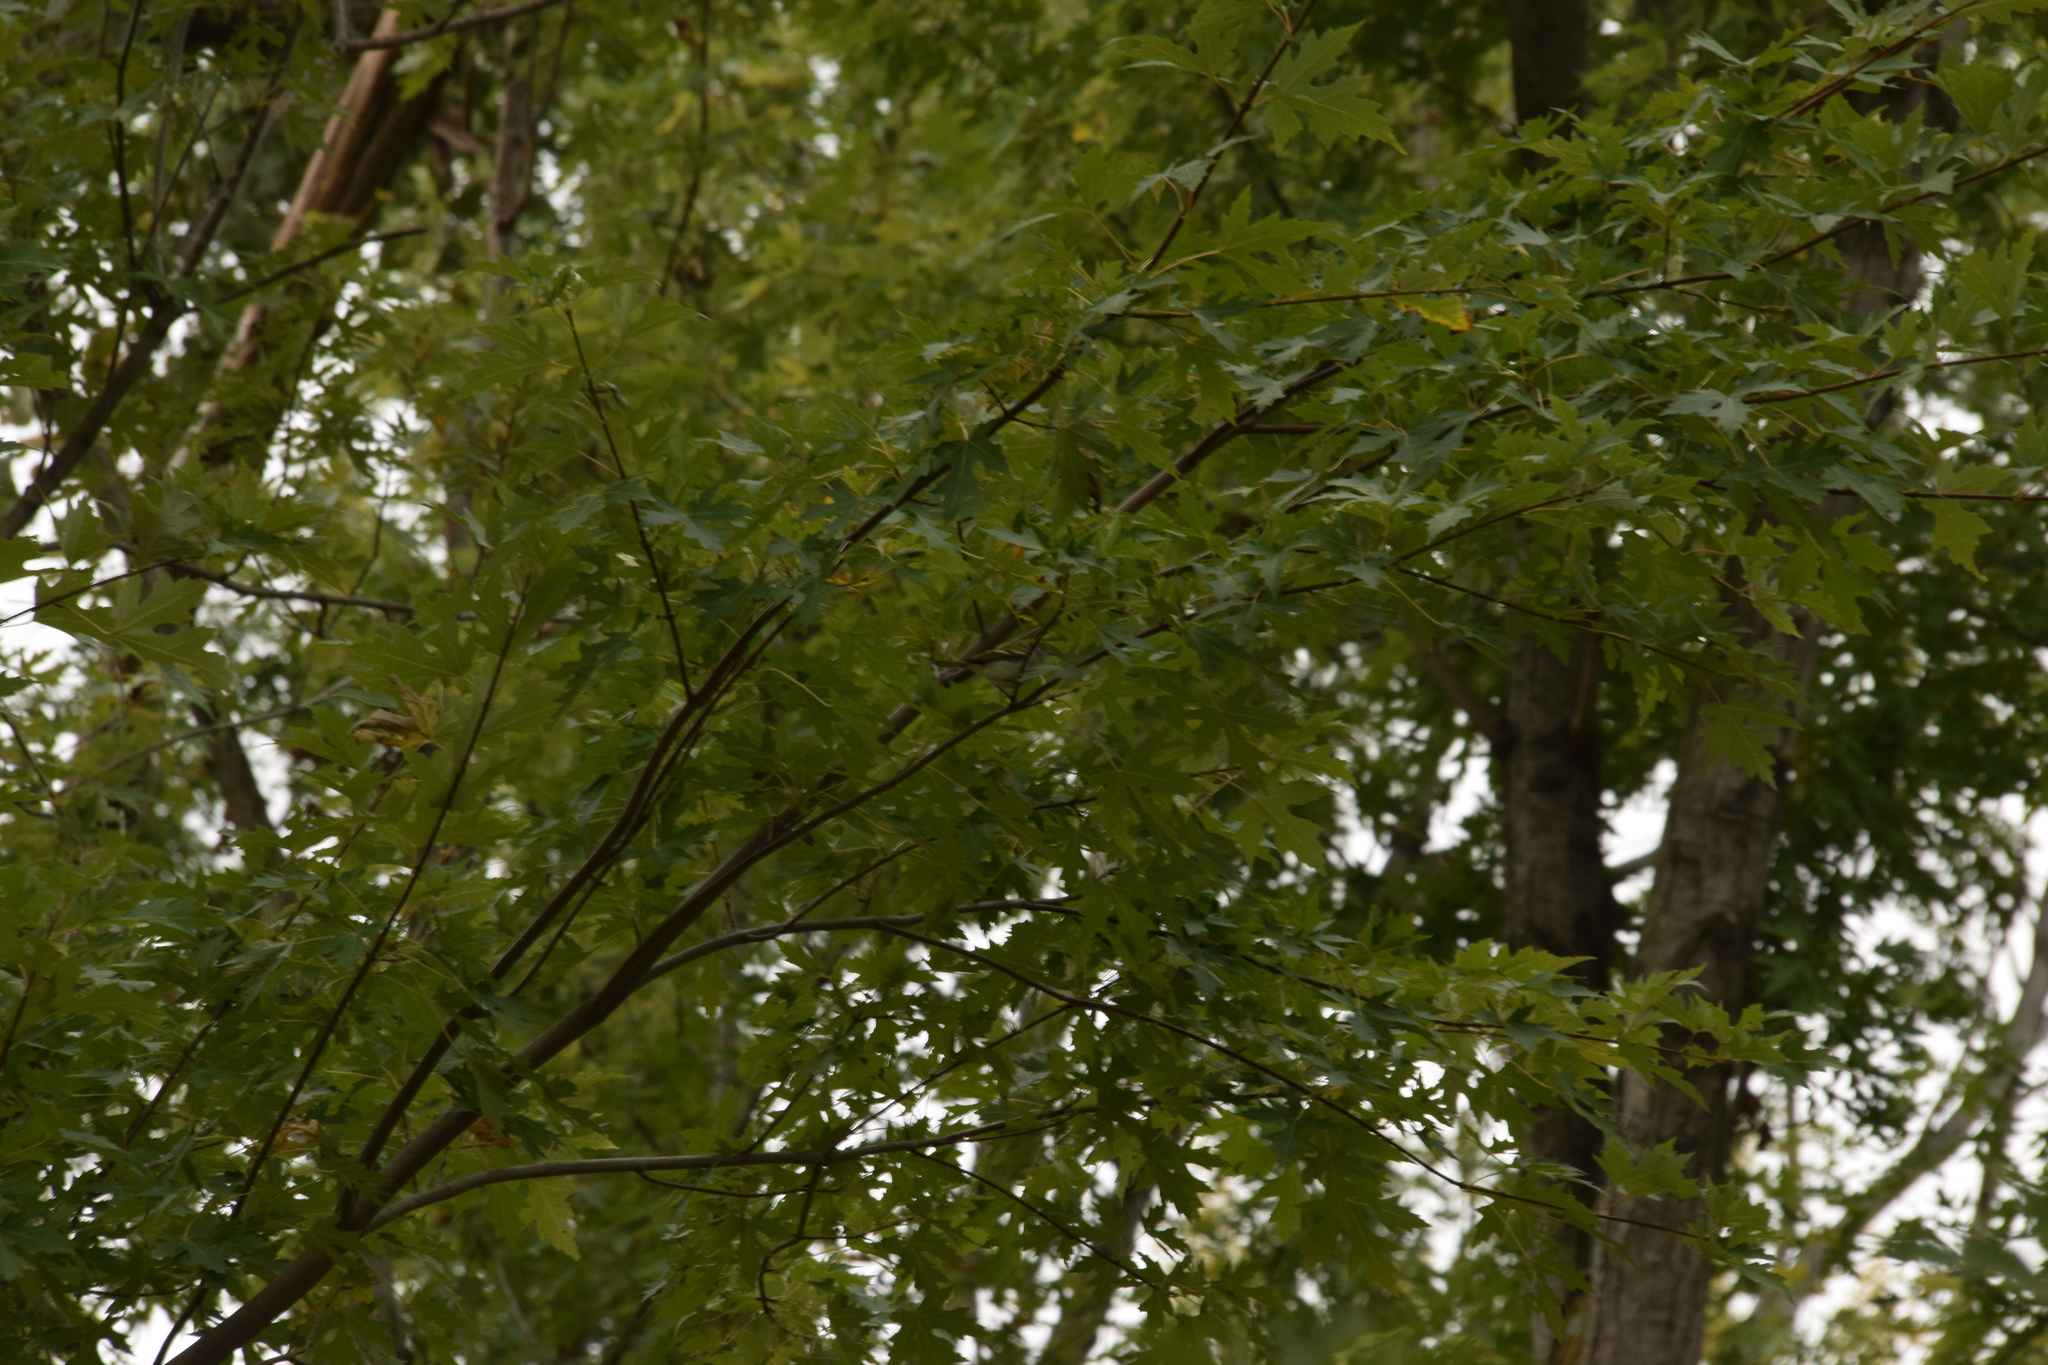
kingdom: Animalia
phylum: Chordata
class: Aves
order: Passeriformes
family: Parulidae
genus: Setophaga
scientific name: Setophaga pensylvanica
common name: Chestnut-sided warbler
